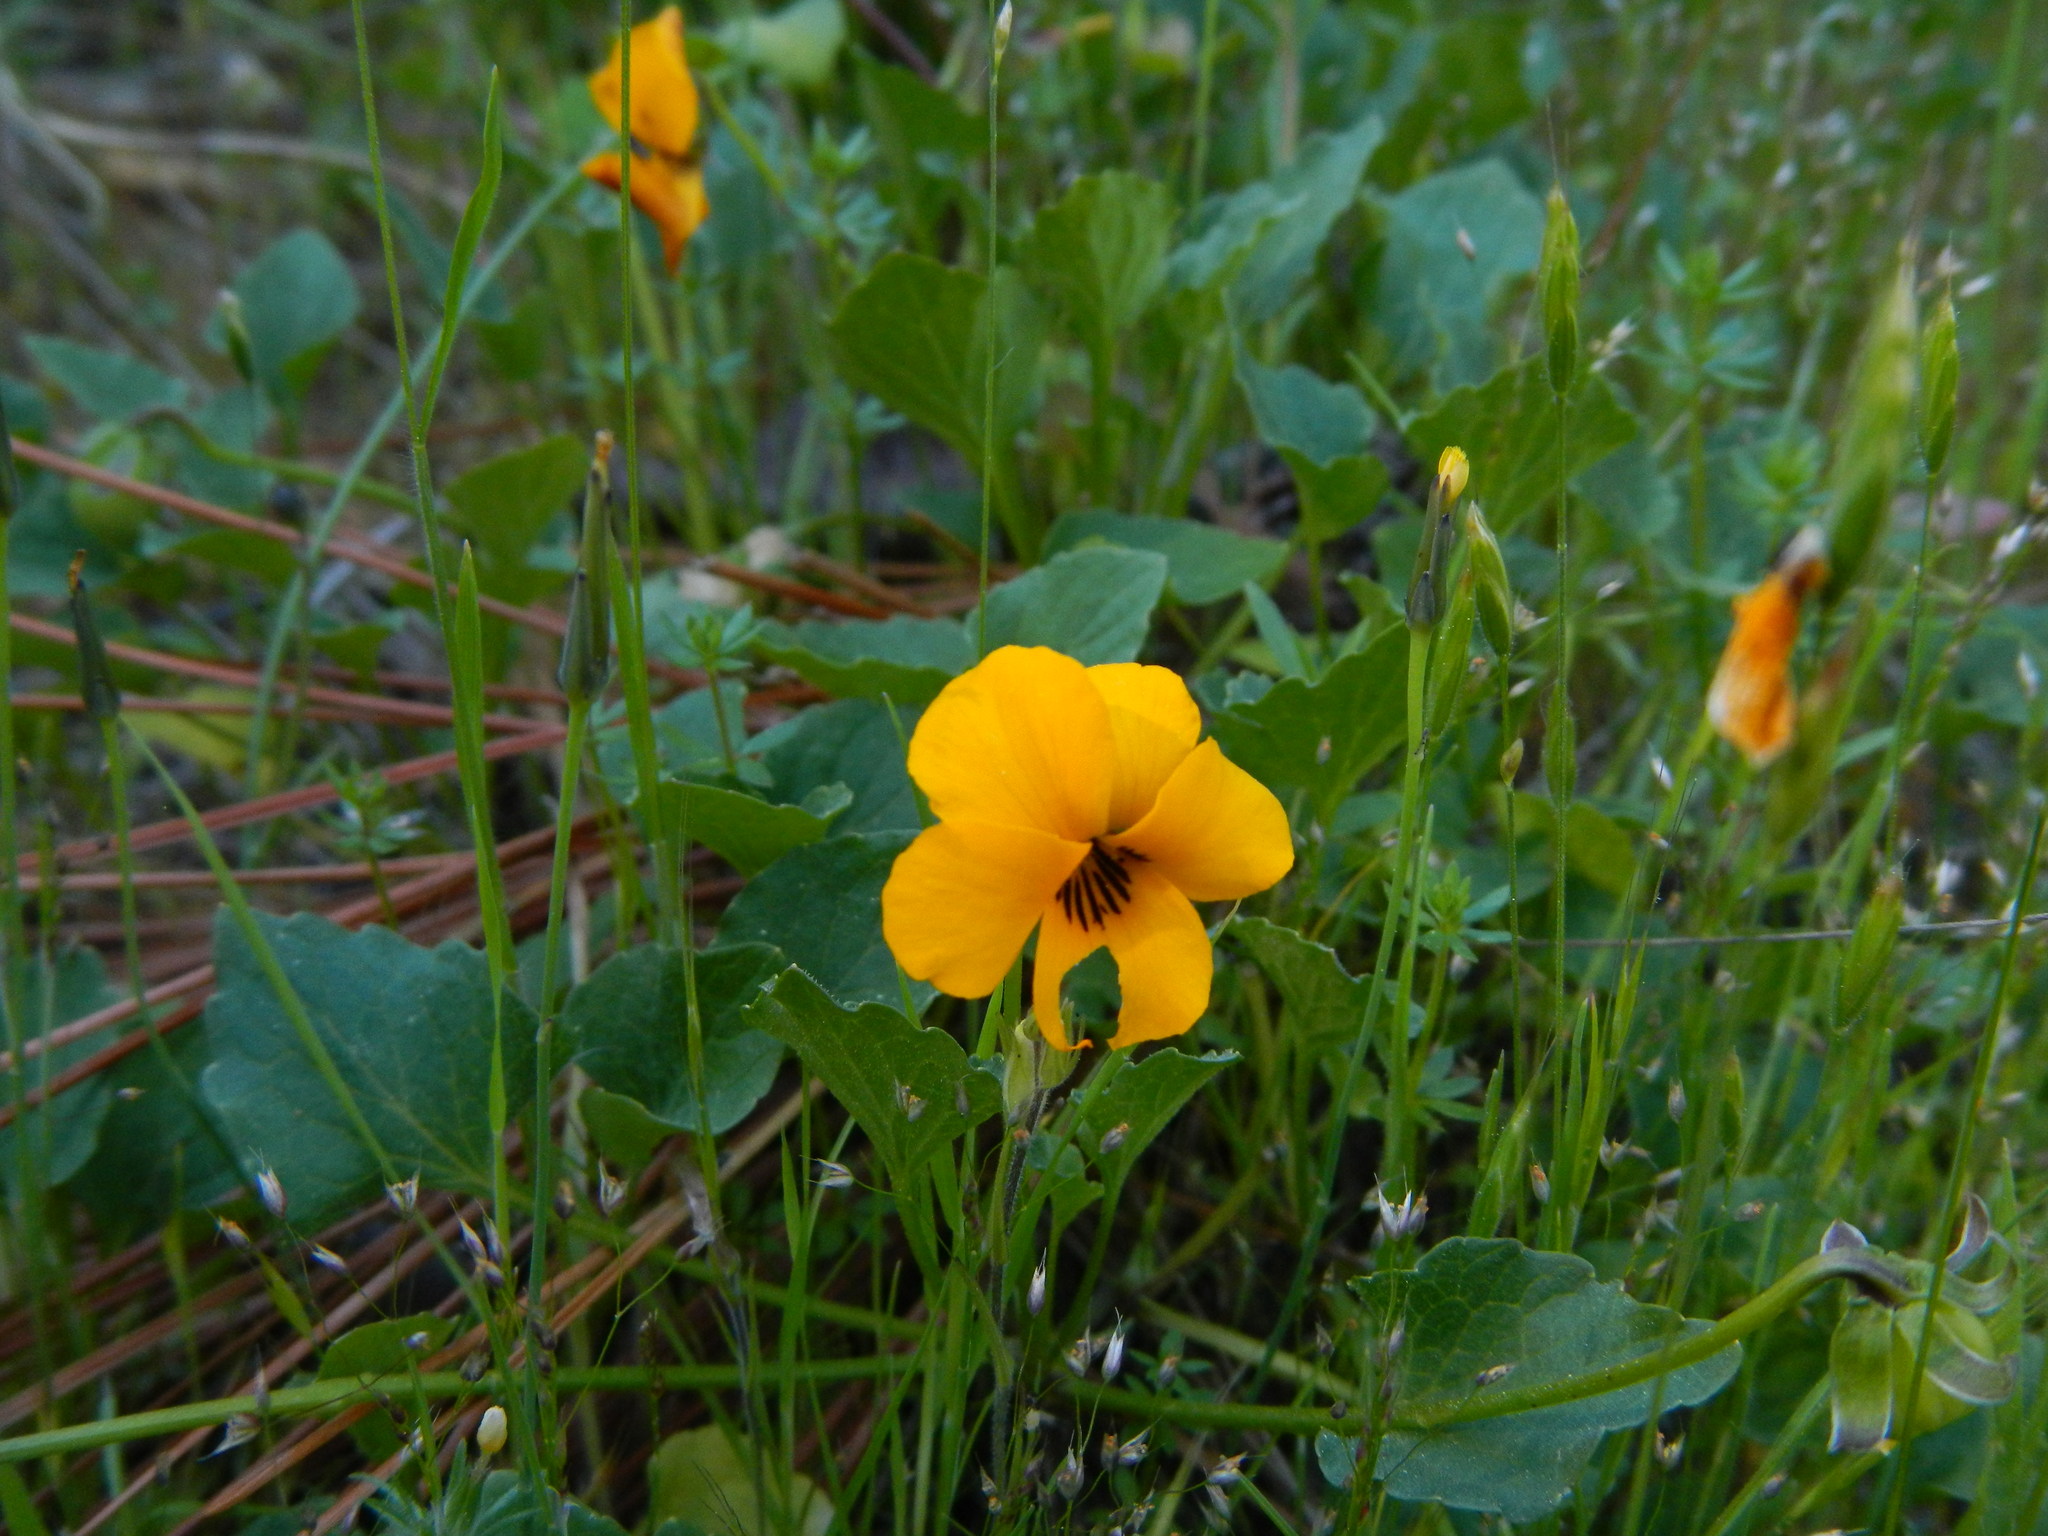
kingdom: Plantae
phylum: Tracheophyta
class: Magnoliopsida
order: Malpighiales
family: Violaceae
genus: Viola
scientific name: Viola pedunculata
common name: California golden violet
